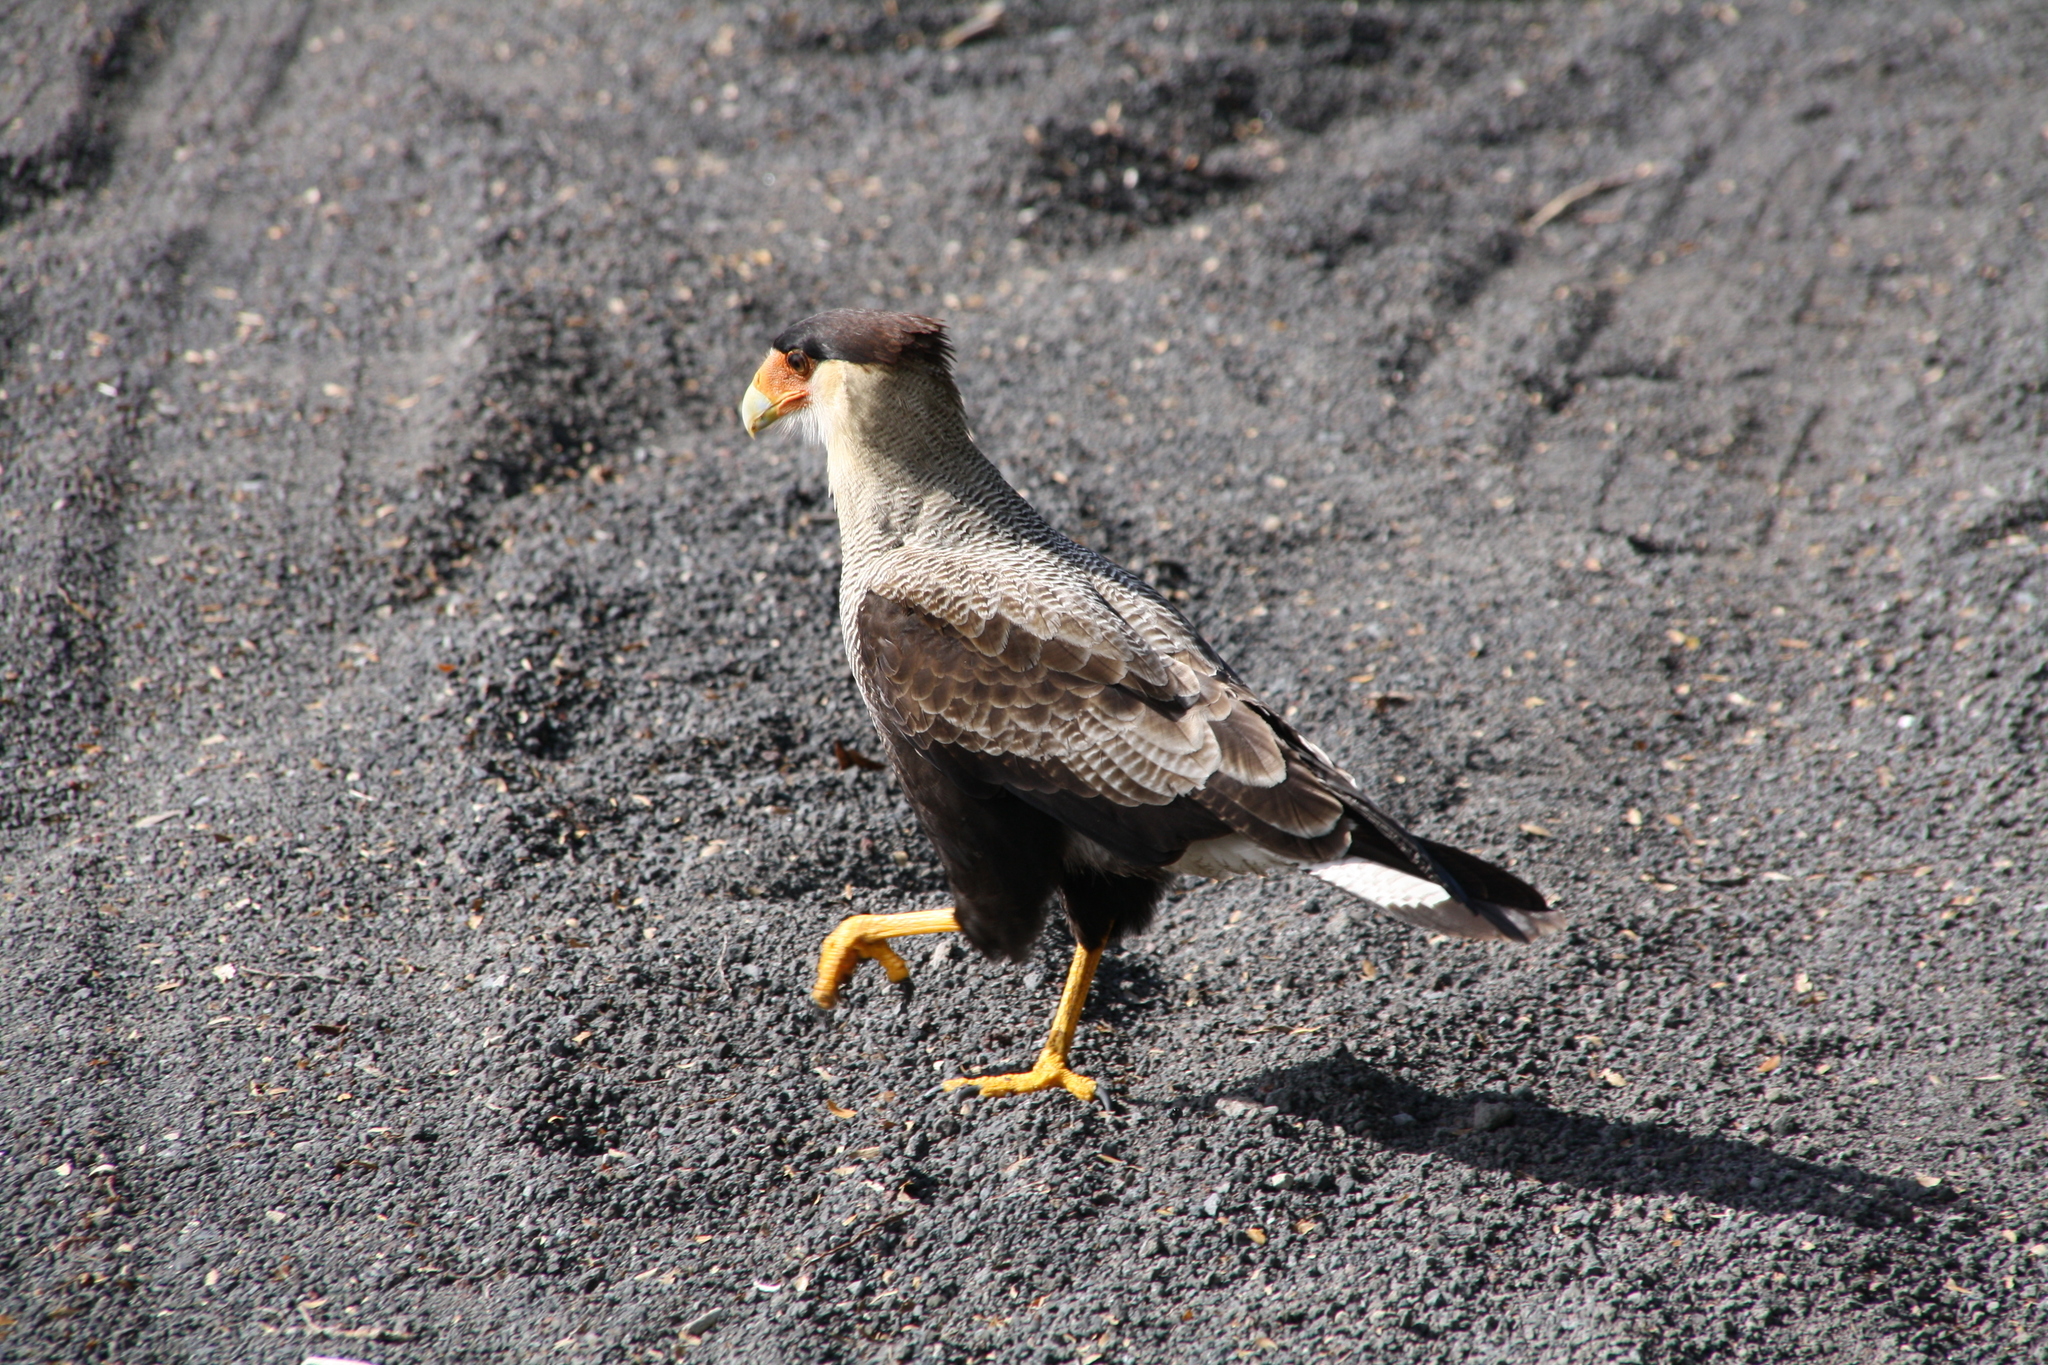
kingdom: Animalia
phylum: Chordata
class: Aves
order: Falconiformes
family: Falconidae
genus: Caracara
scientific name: Caracara plancus
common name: Southern caracara
